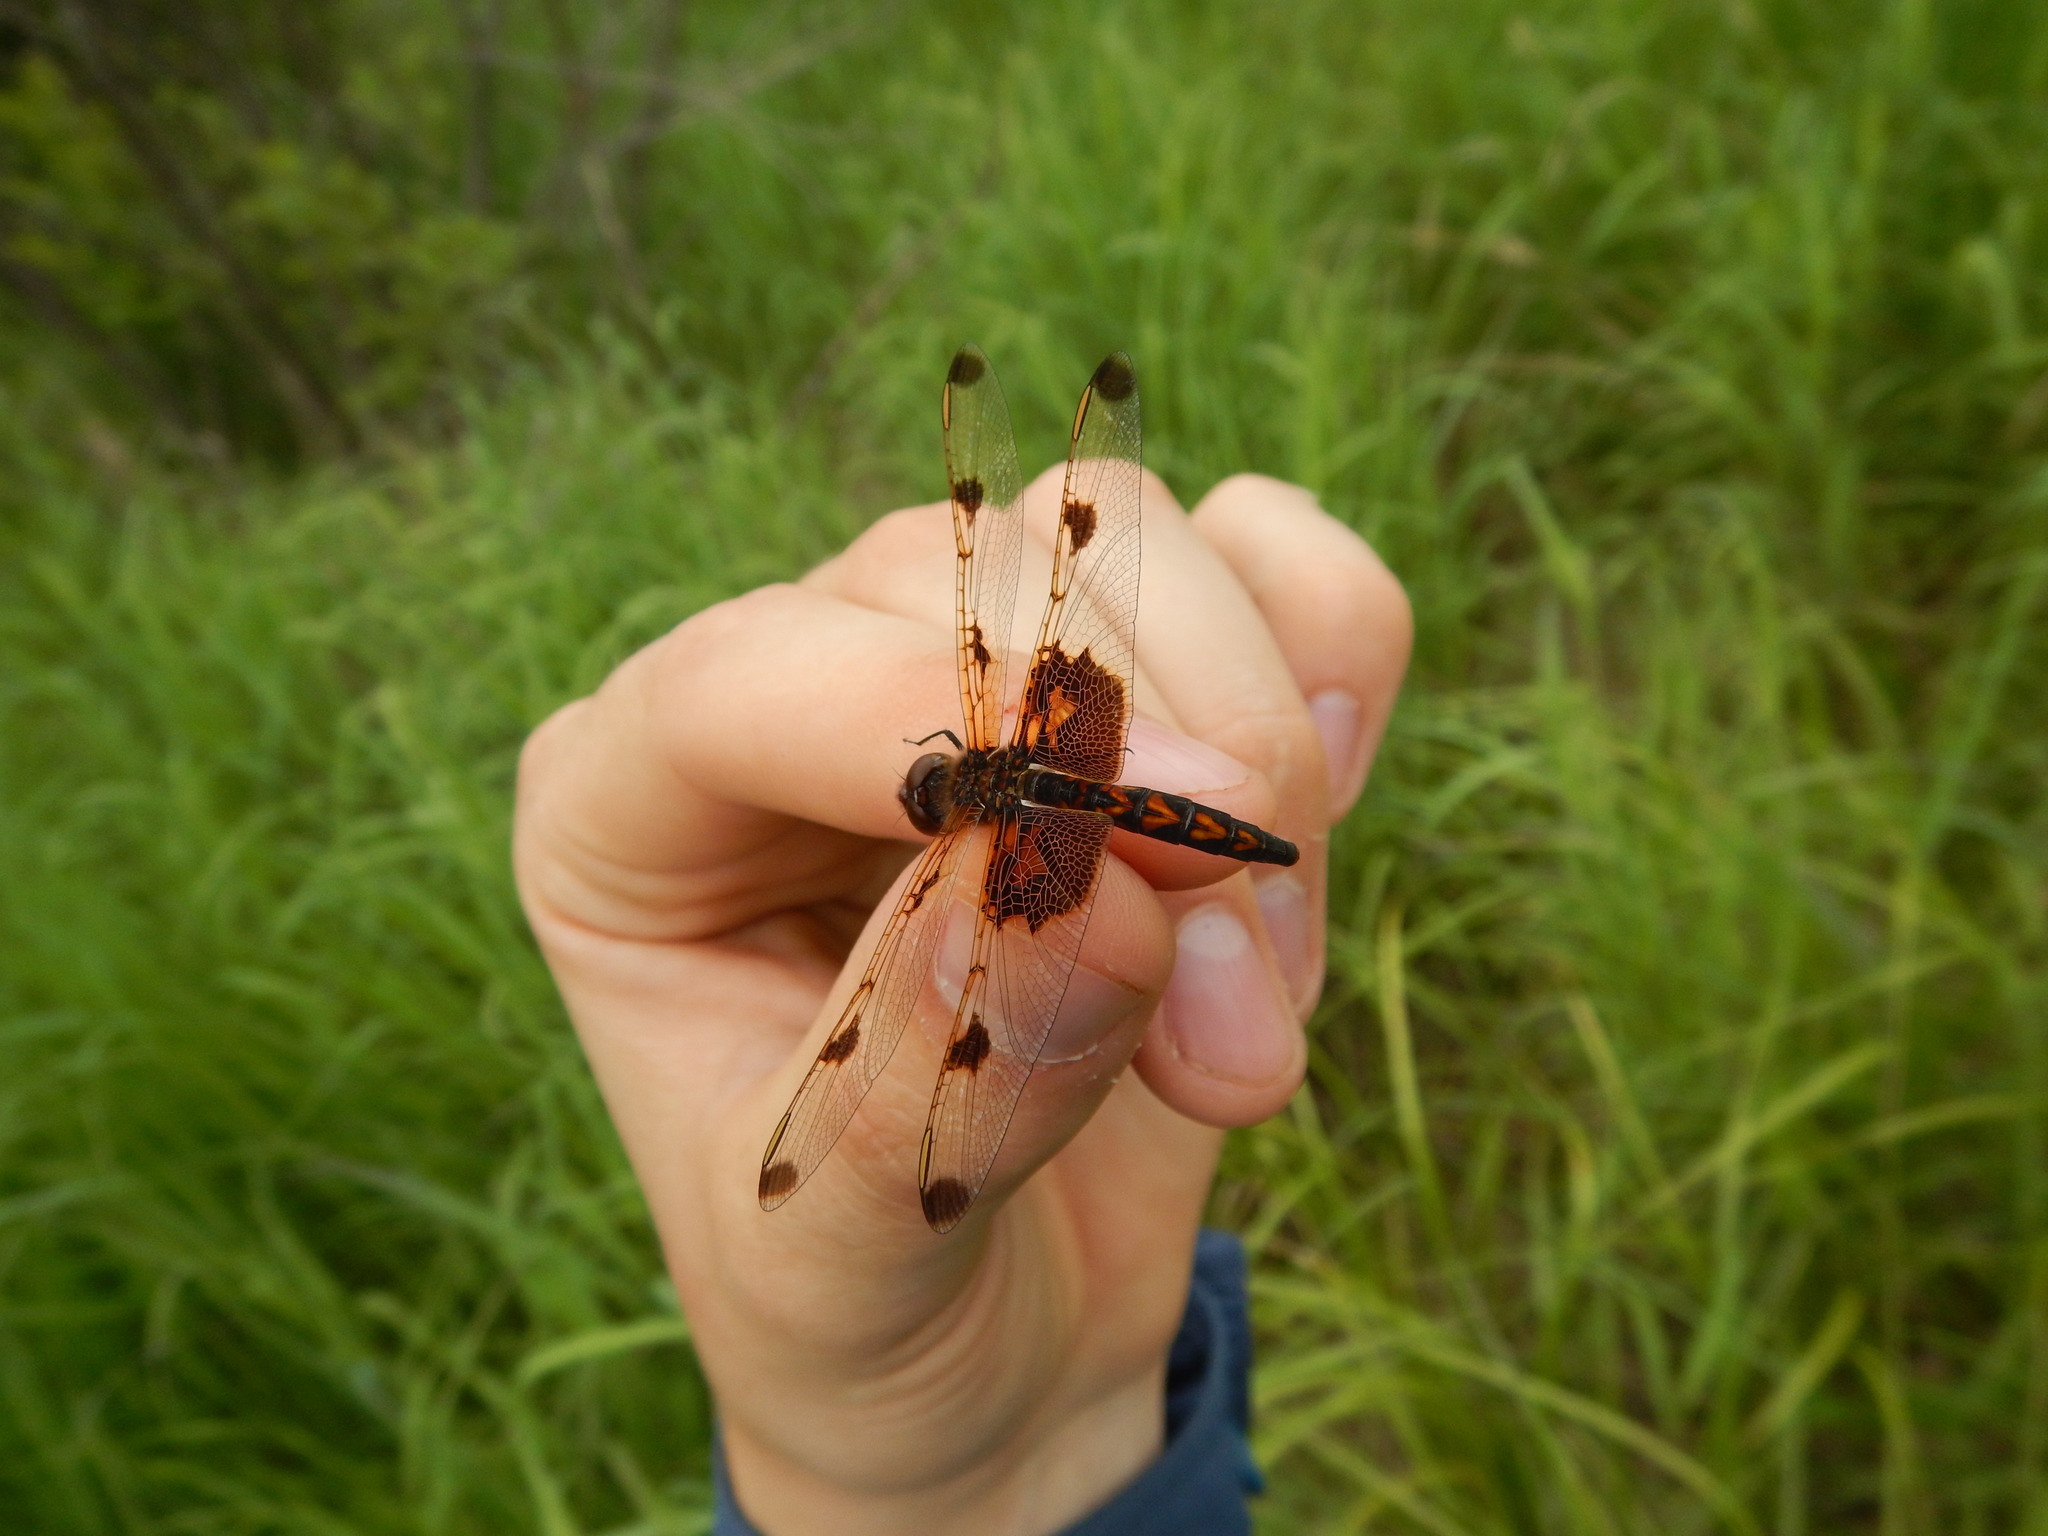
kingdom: Animalia
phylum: Arthropoda
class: Insecta
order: Odonata
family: Libellulidae
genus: Celithemis
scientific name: Celithemis elisa
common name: Calico pennant
